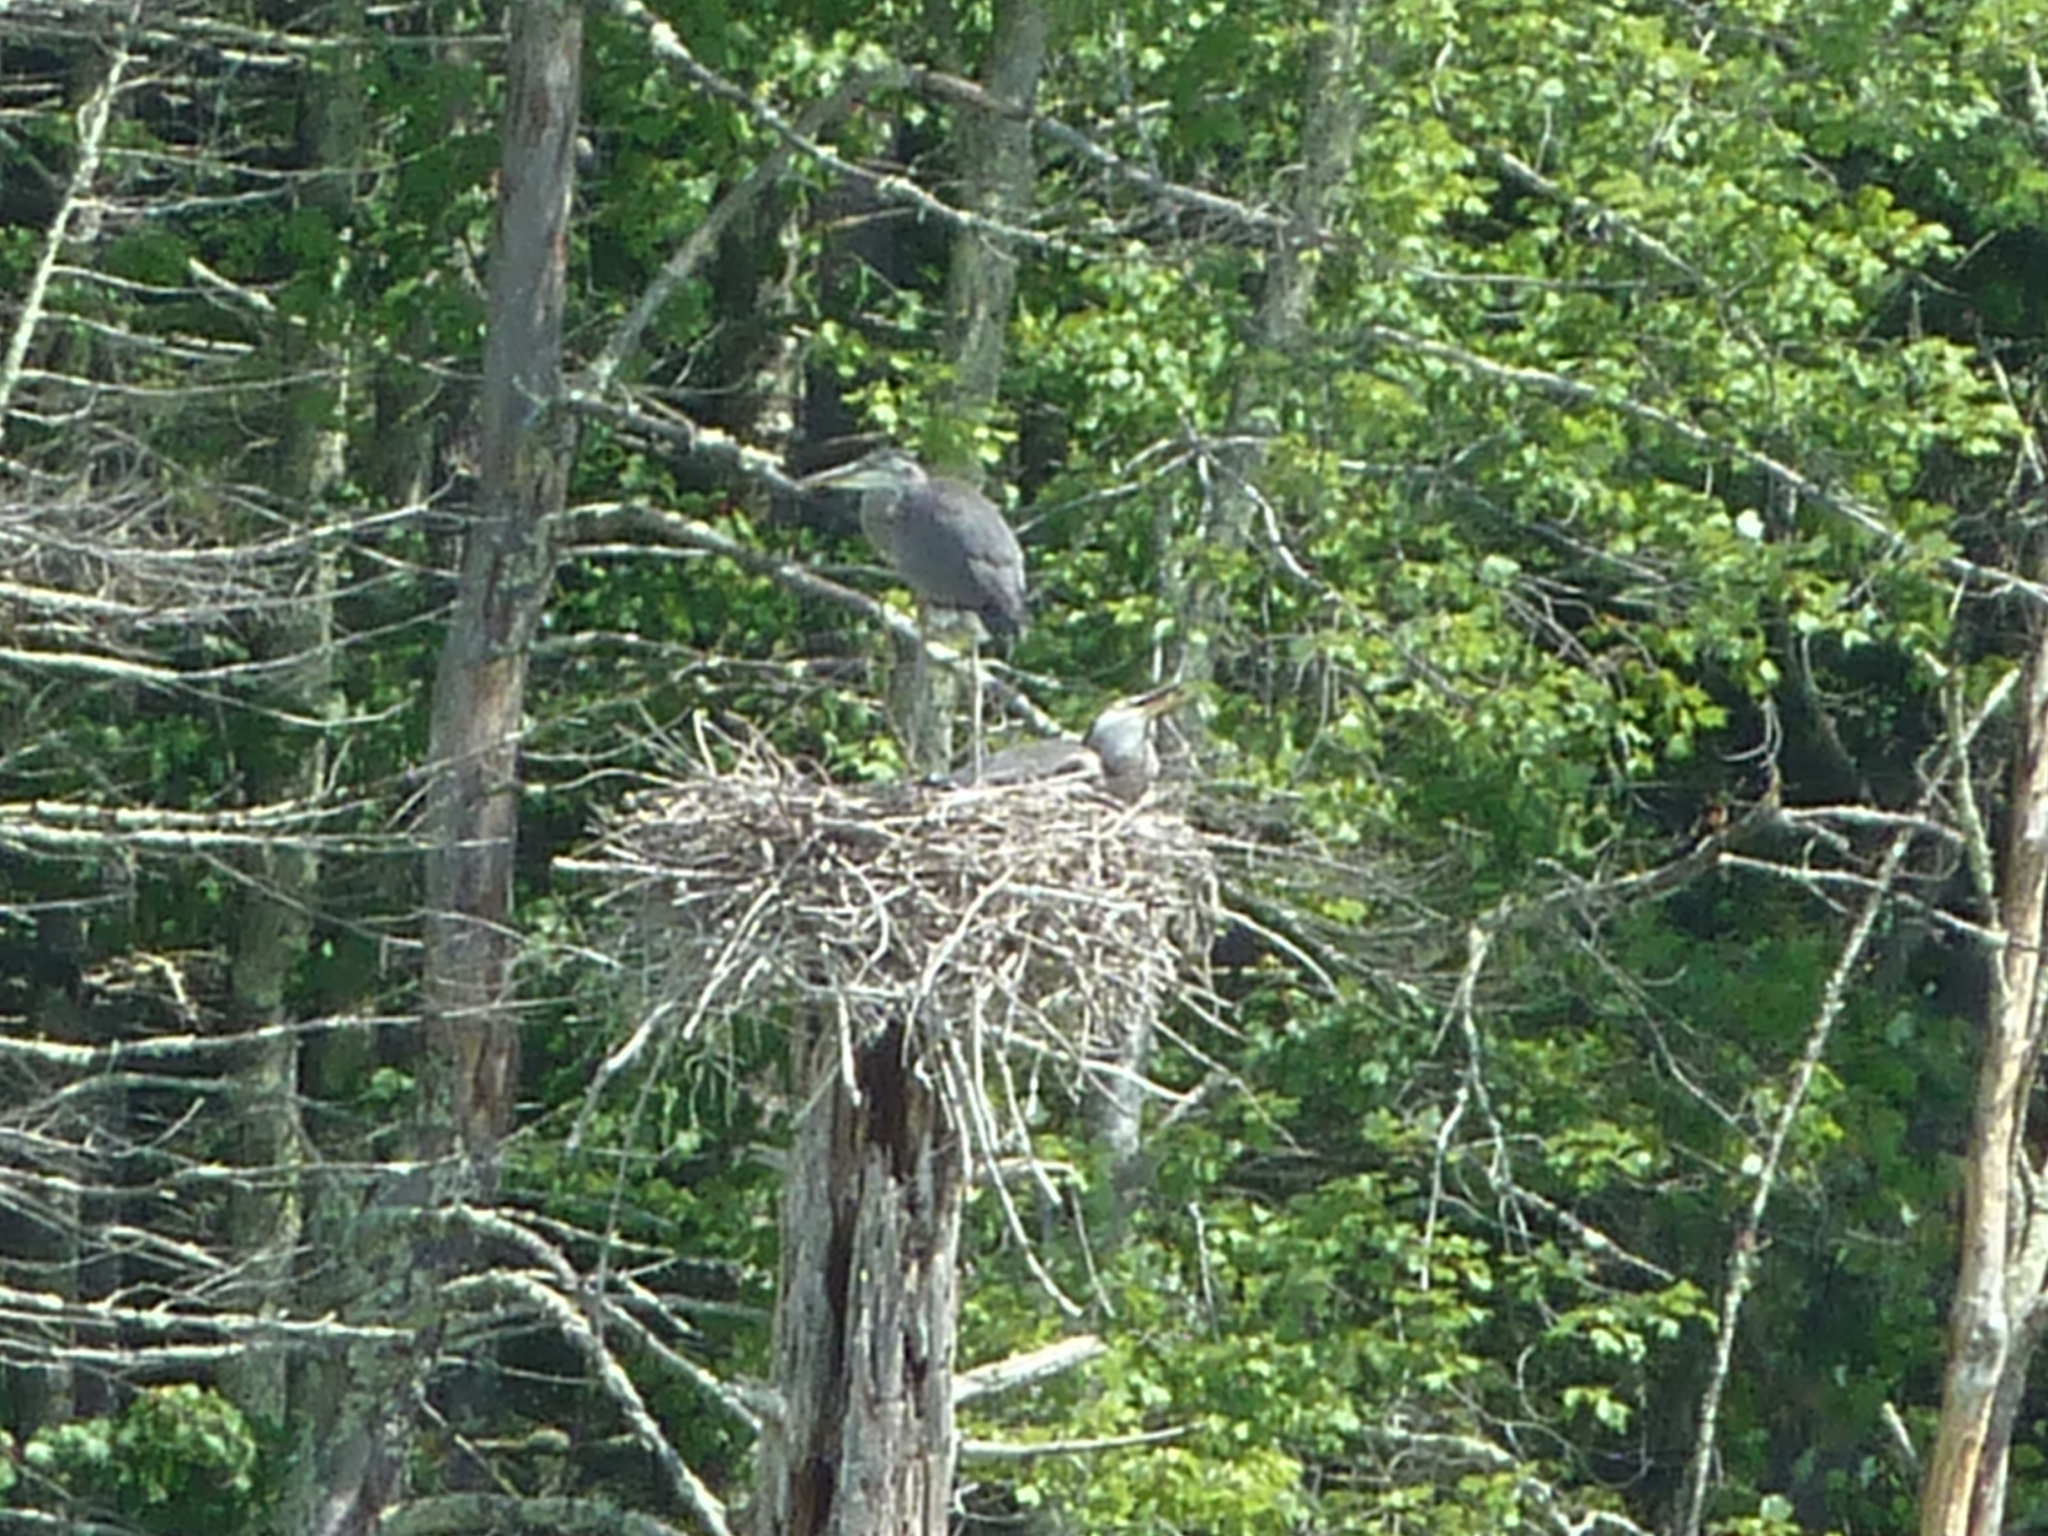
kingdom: Animalia
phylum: Chordata
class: Aves
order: Pelecaniformes
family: Ardeidae
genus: Ardea
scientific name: Ardea herodias
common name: Great blue heron
